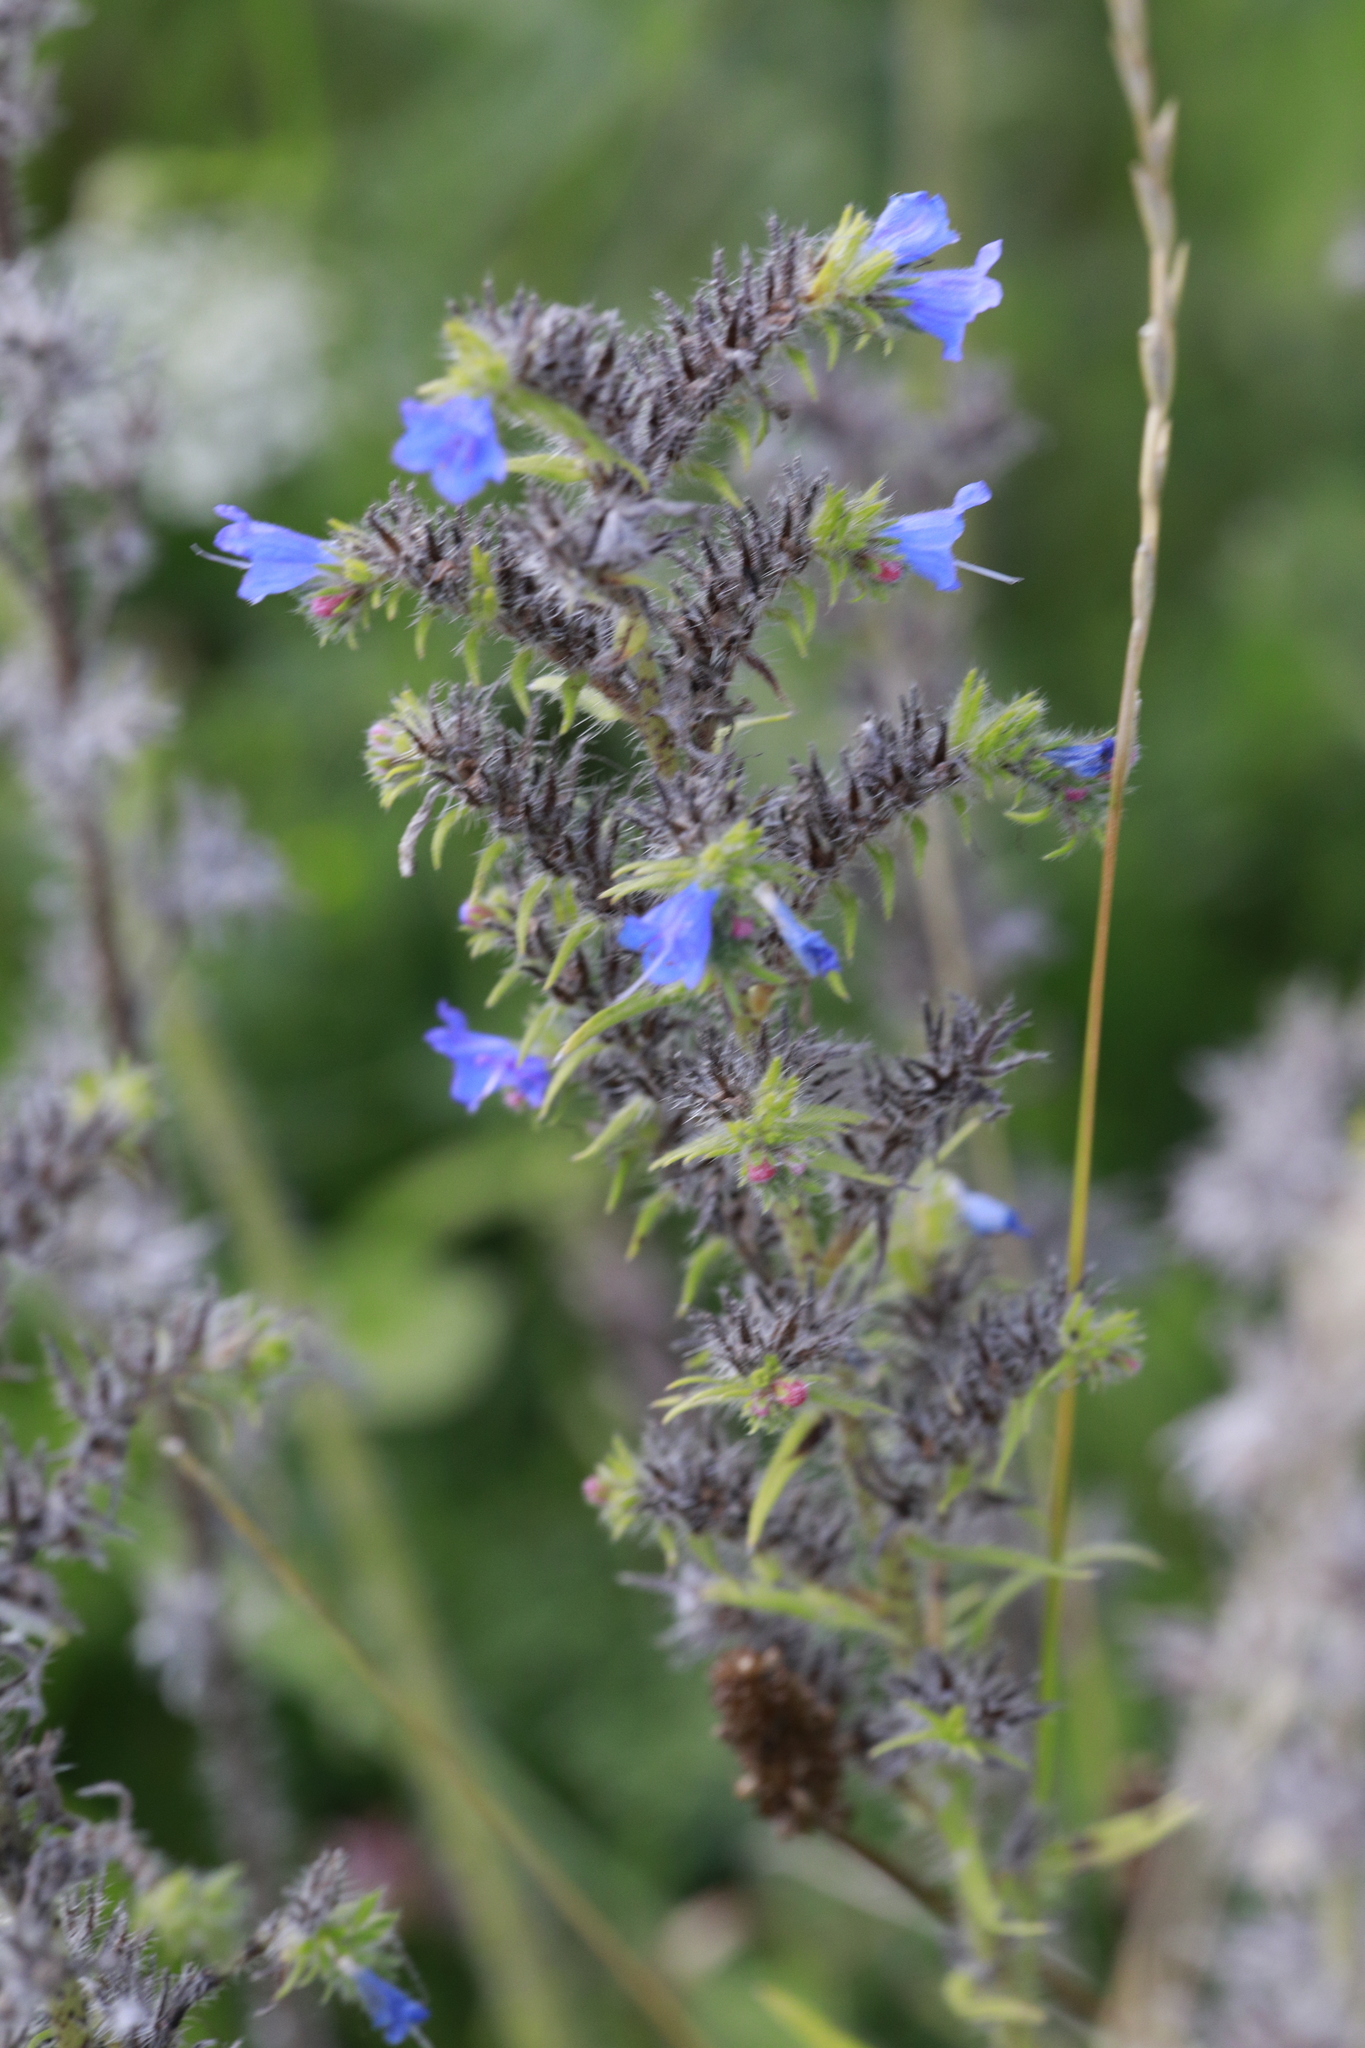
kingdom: Plantae
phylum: Tracheophyta
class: Magnoliopsida
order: Boraginales
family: Boraginaceae
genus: Echium
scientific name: Echium vulgare
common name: Common viper's bugloss
